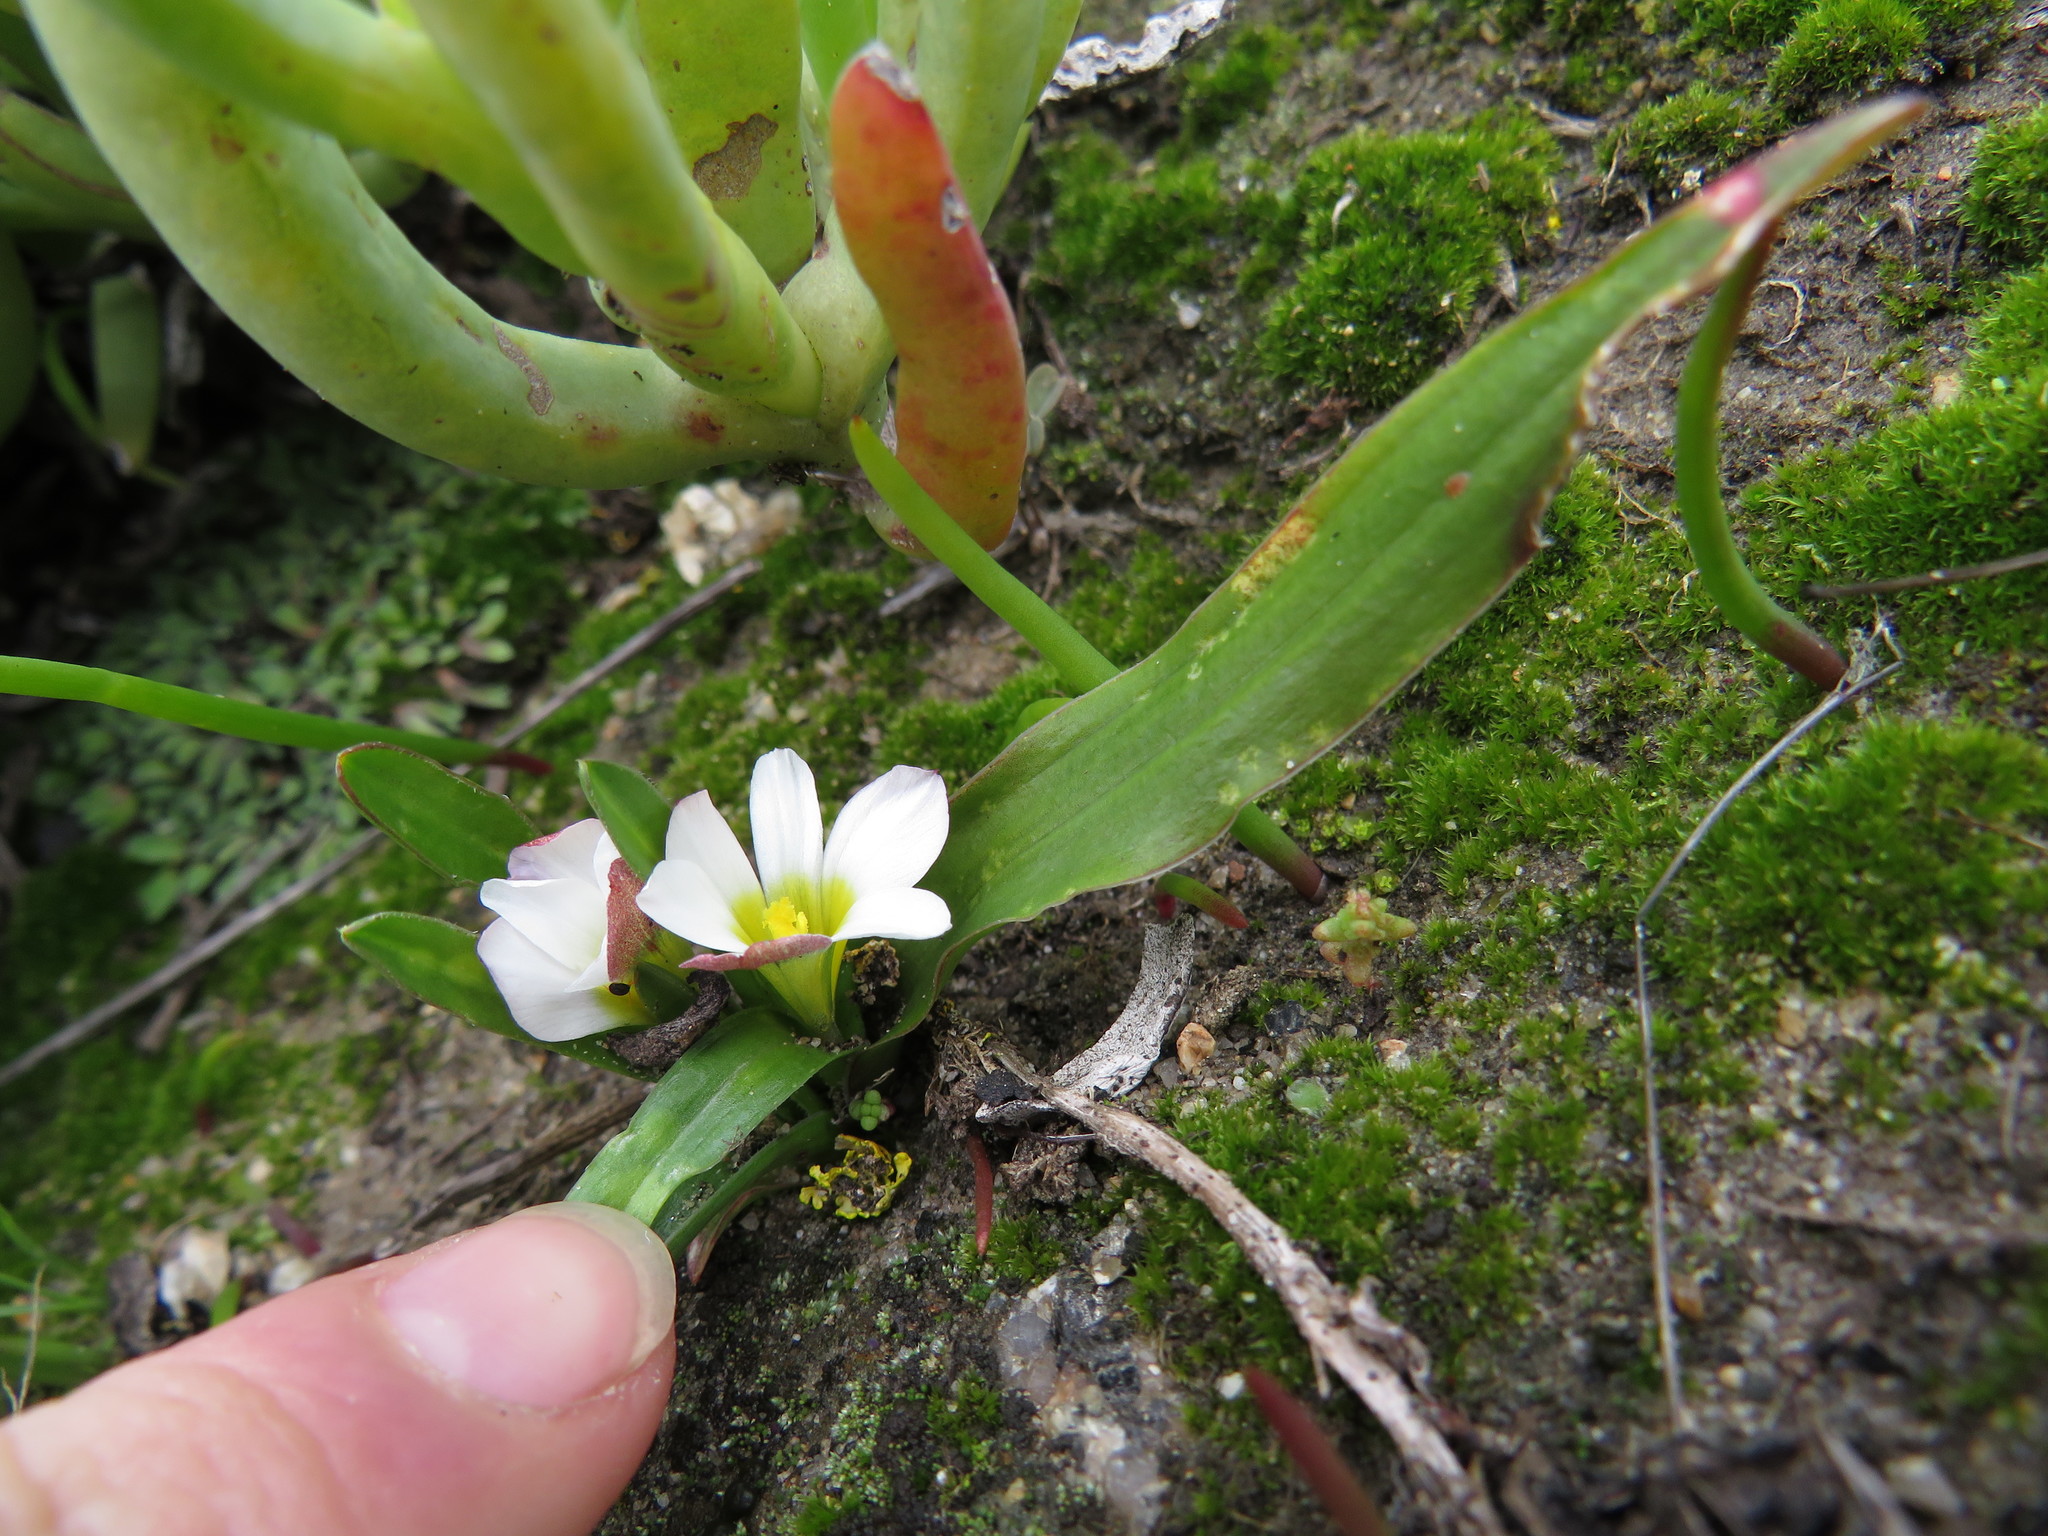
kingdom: Plantae
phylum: Tracheophyta
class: Liliopsida
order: Asparagales
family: Iridaceae
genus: Moraea
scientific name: Moraea albiflora
